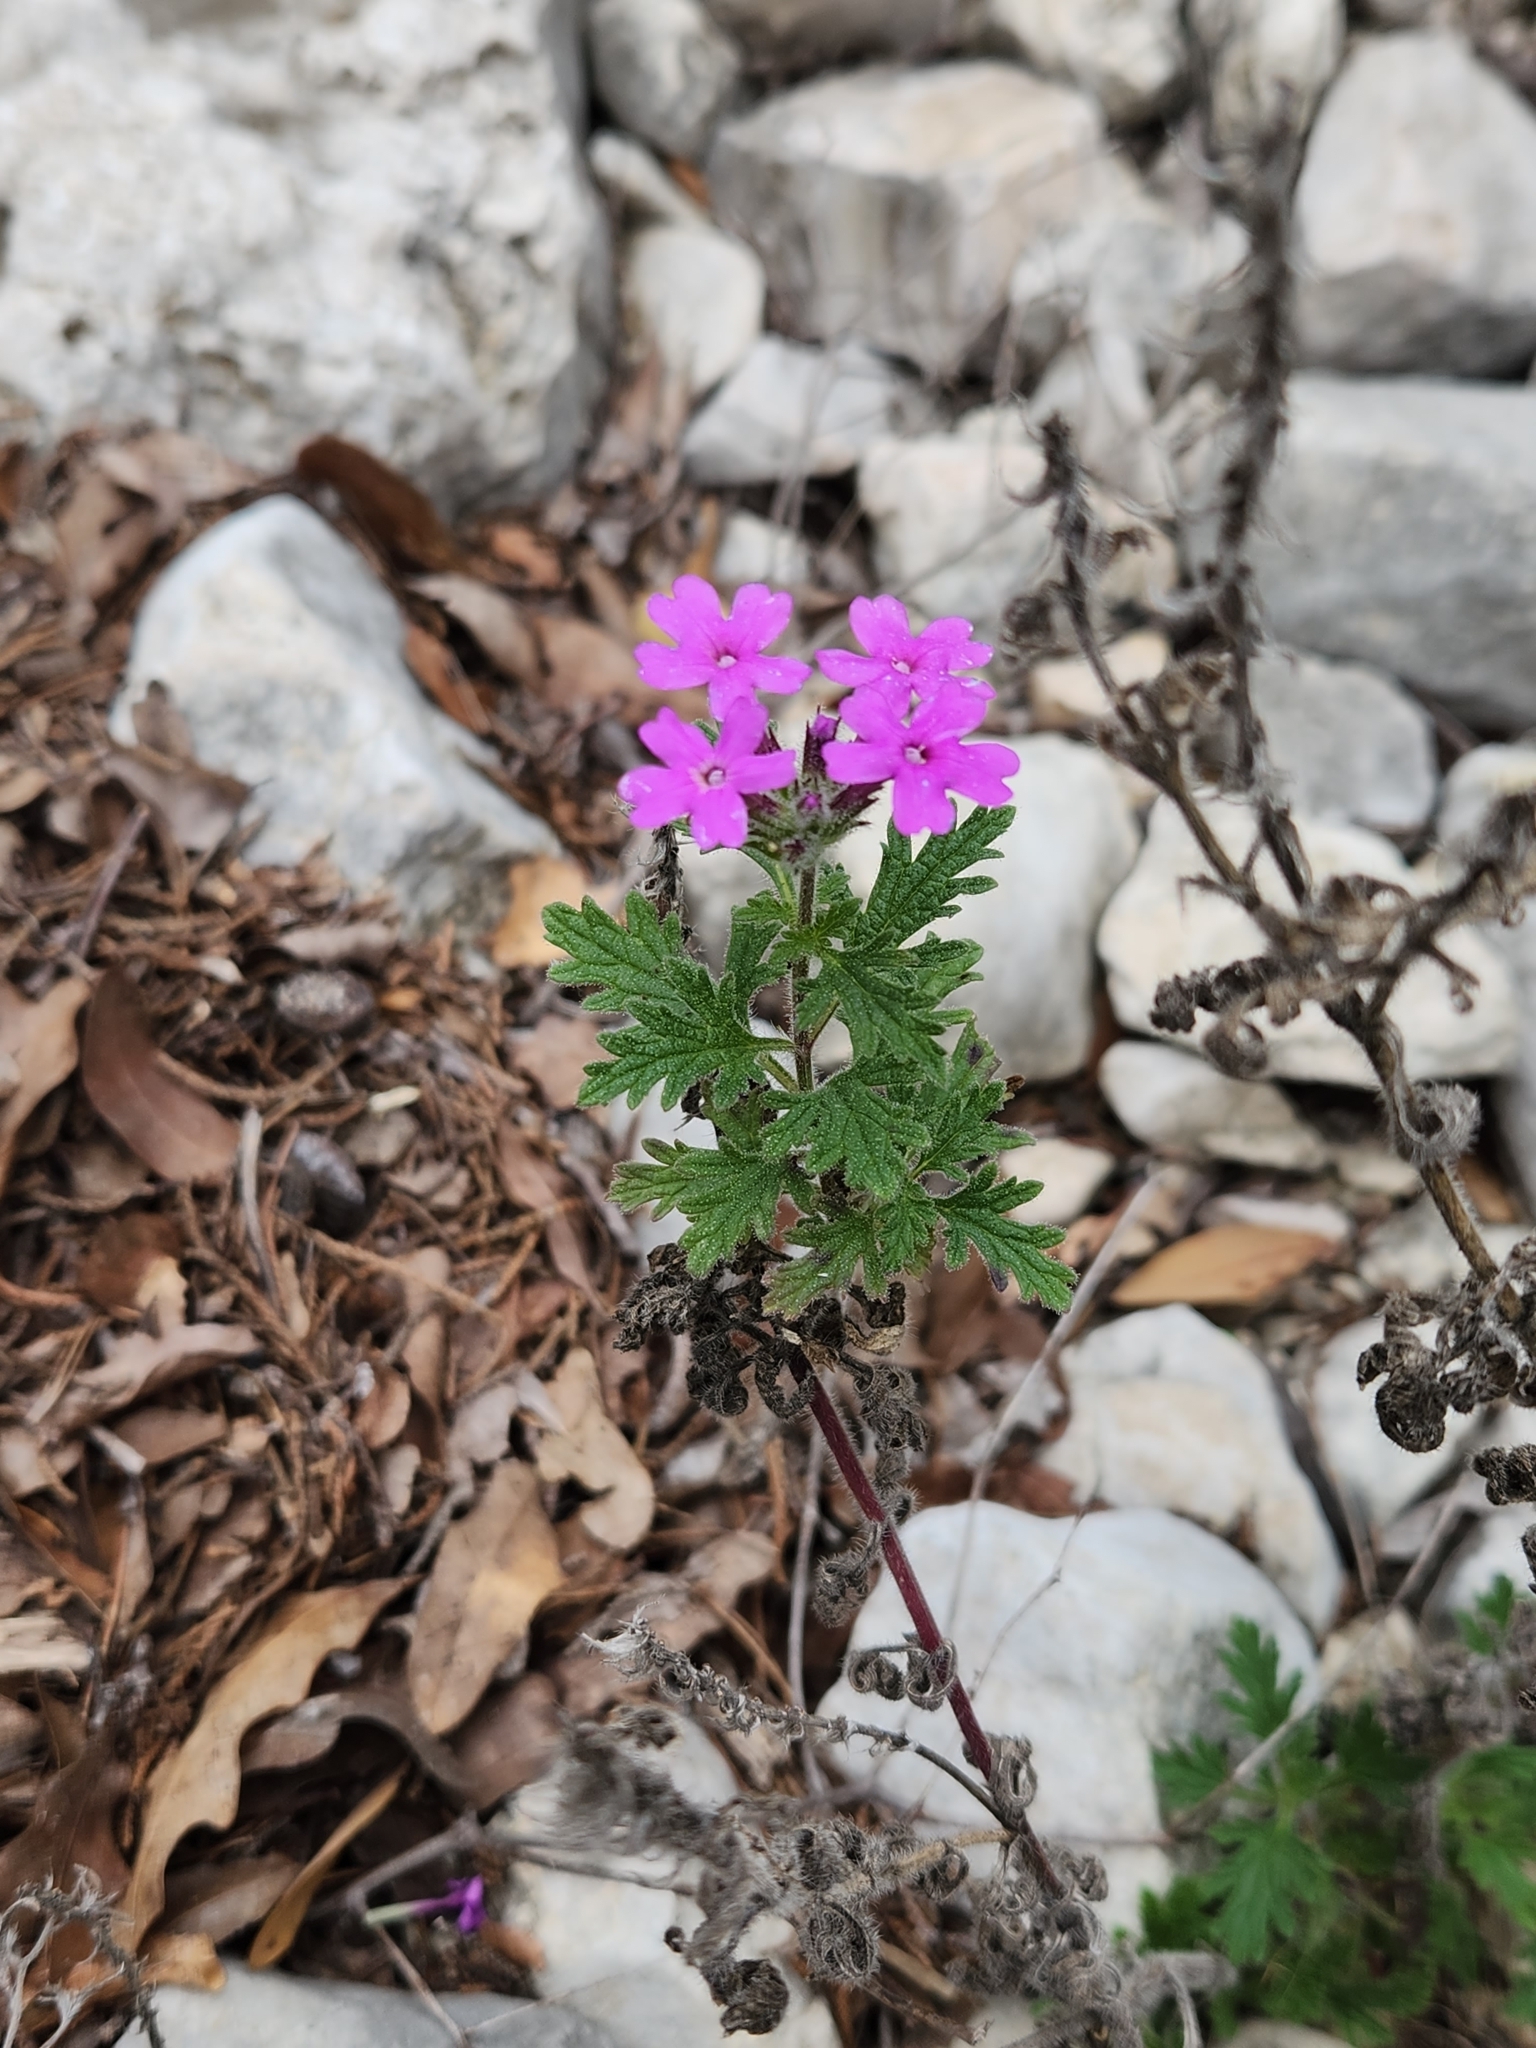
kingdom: Plantae
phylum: Tracheophyta
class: Magnoliopsida
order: Lamiales
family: Verbenaceae
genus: Verbena
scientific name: Verbena tumidula
